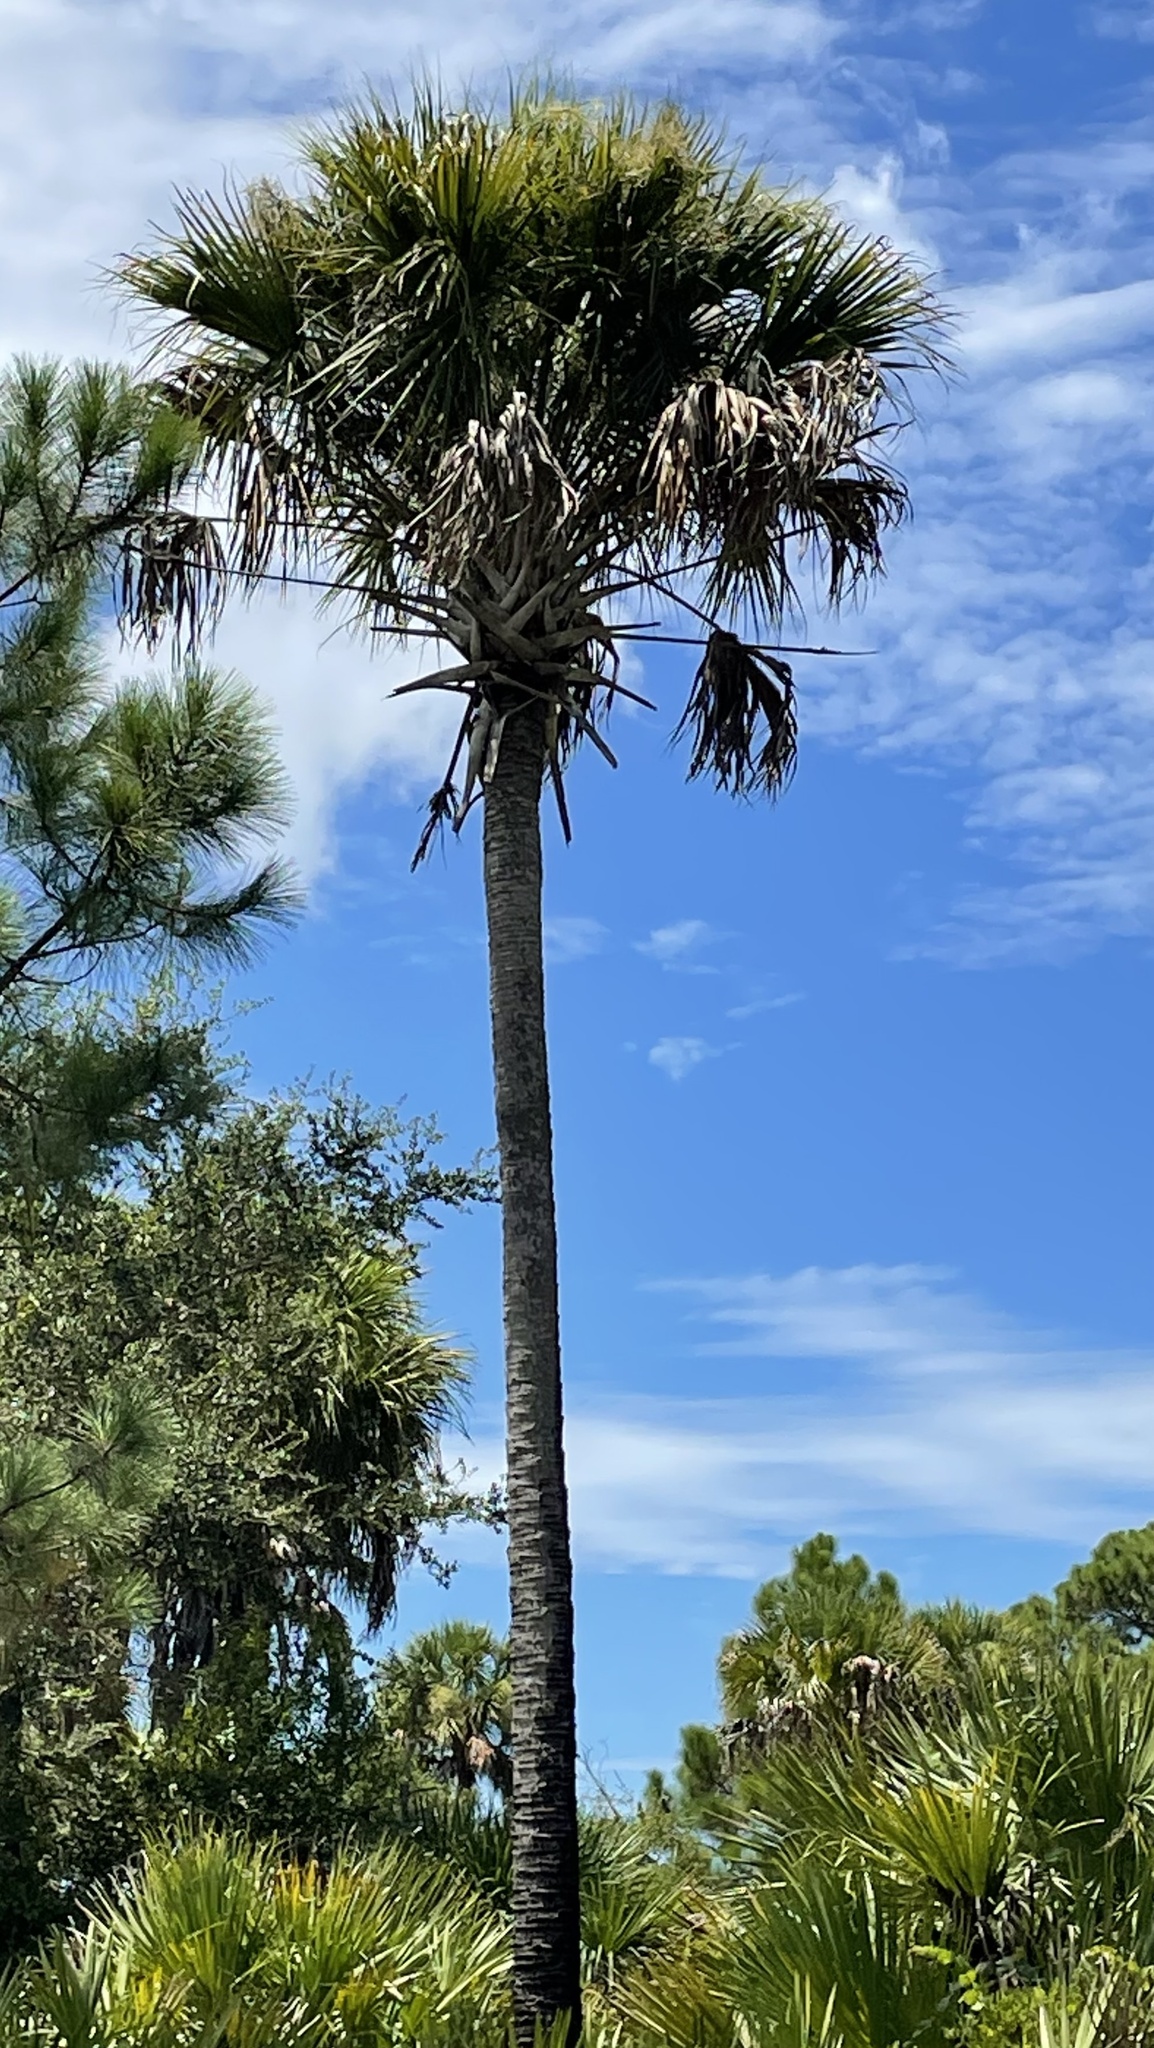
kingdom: Plantae
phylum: Tracheophyta
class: Liliopsida
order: Arecales
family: Arecaceae
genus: Sabal
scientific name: Sabal palmetto
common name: Blue palmetto
